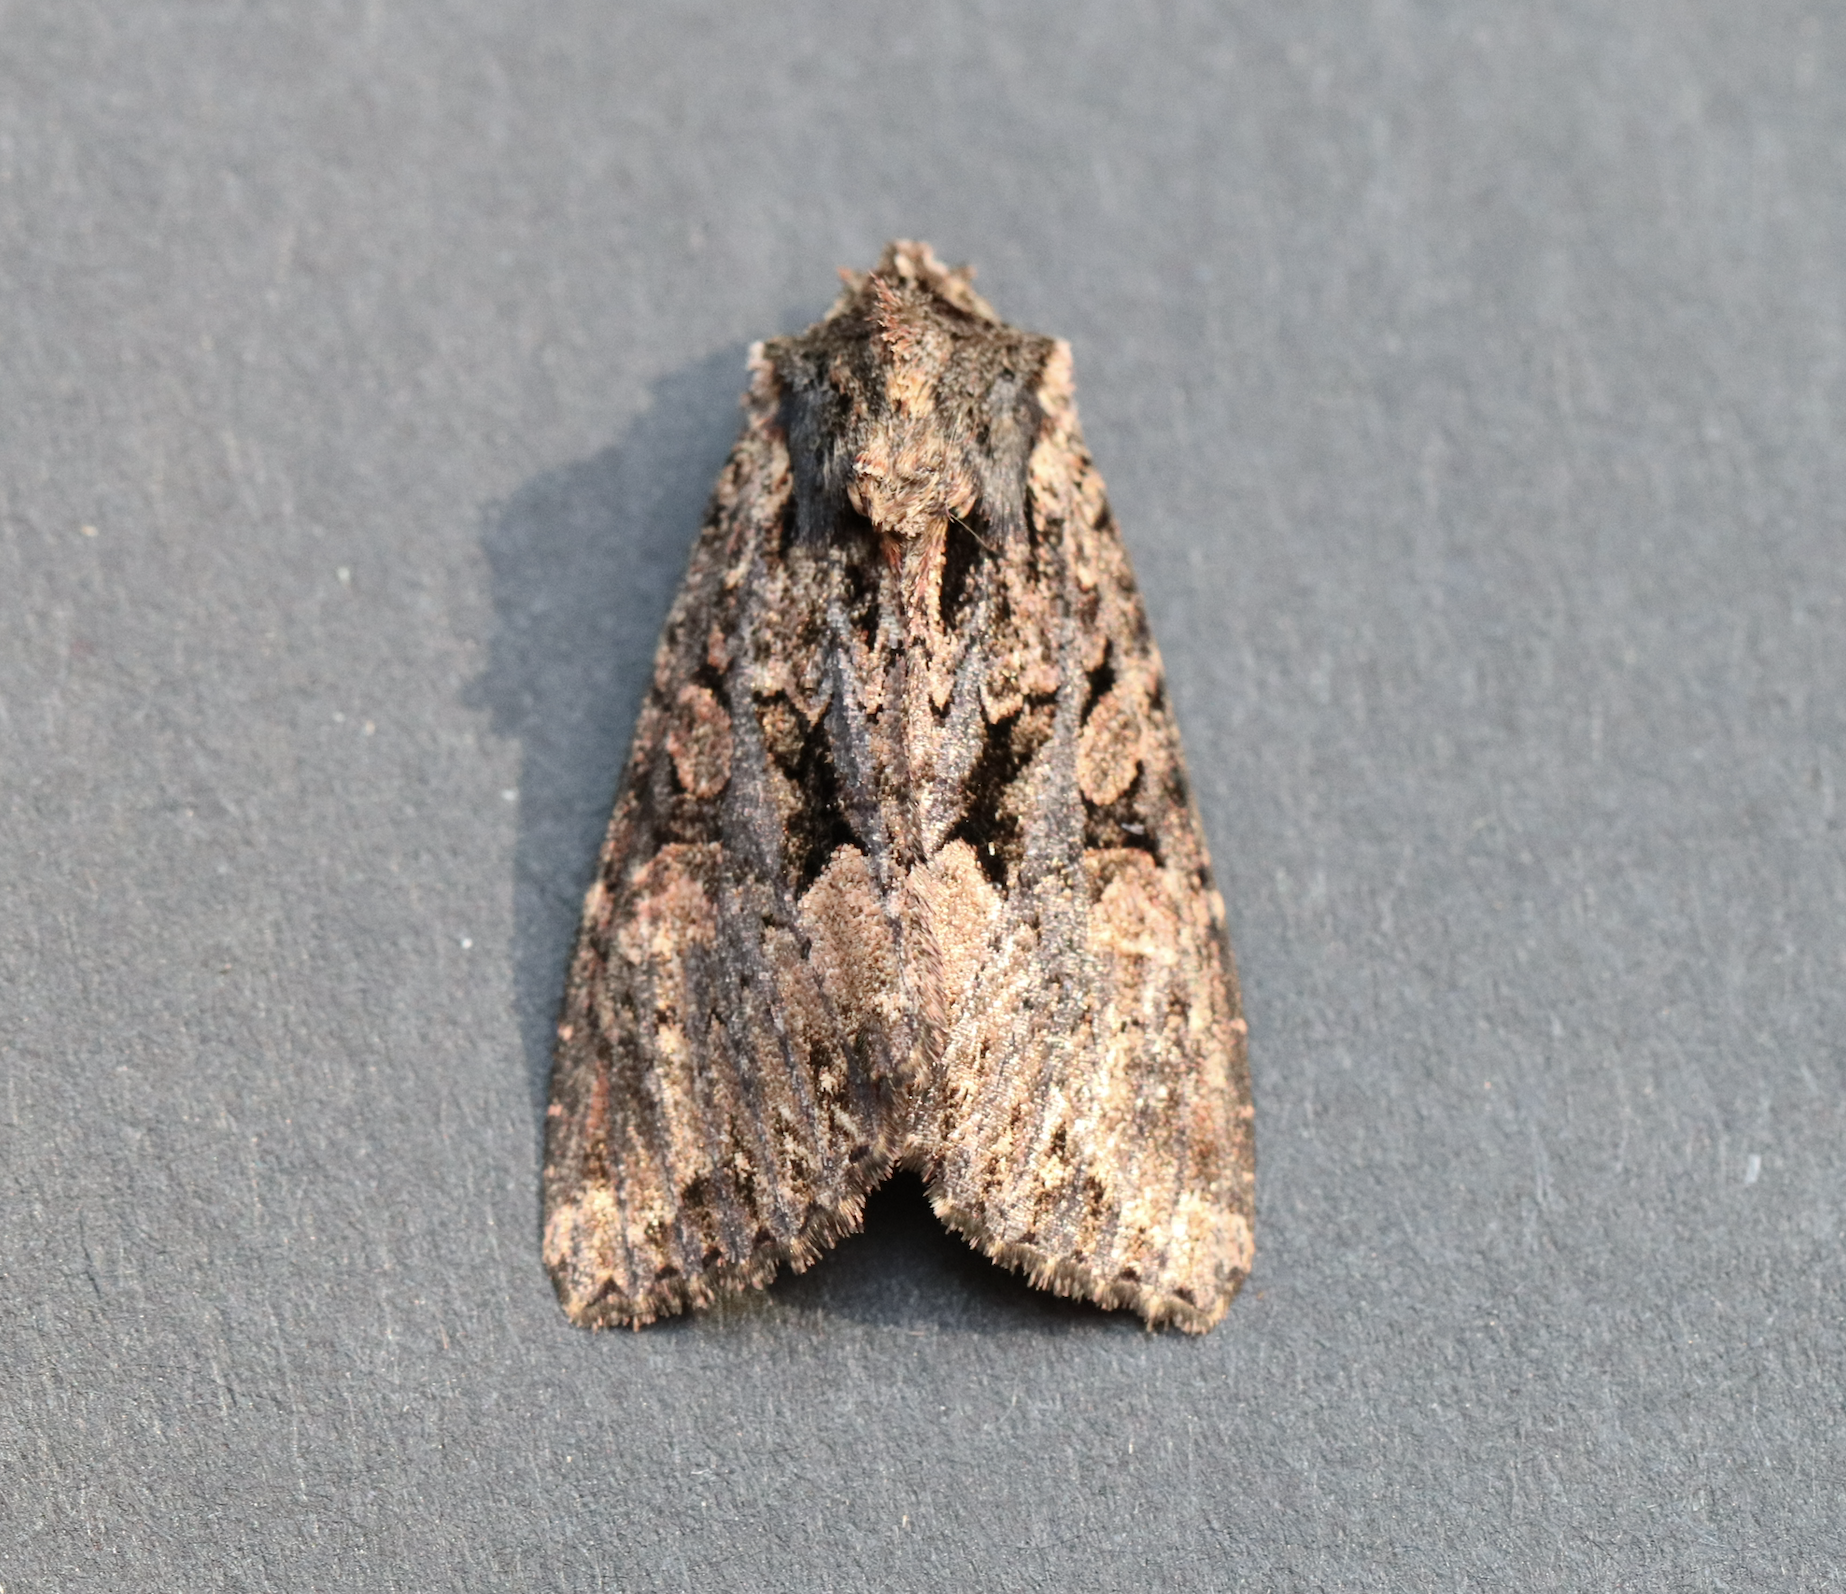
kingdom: Animalia
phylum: Arthropoda
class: Insecta
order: Lepidoptera
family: Noctuidae
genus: Mniotype
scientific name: Mniotype satura
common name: Beautiful arches
